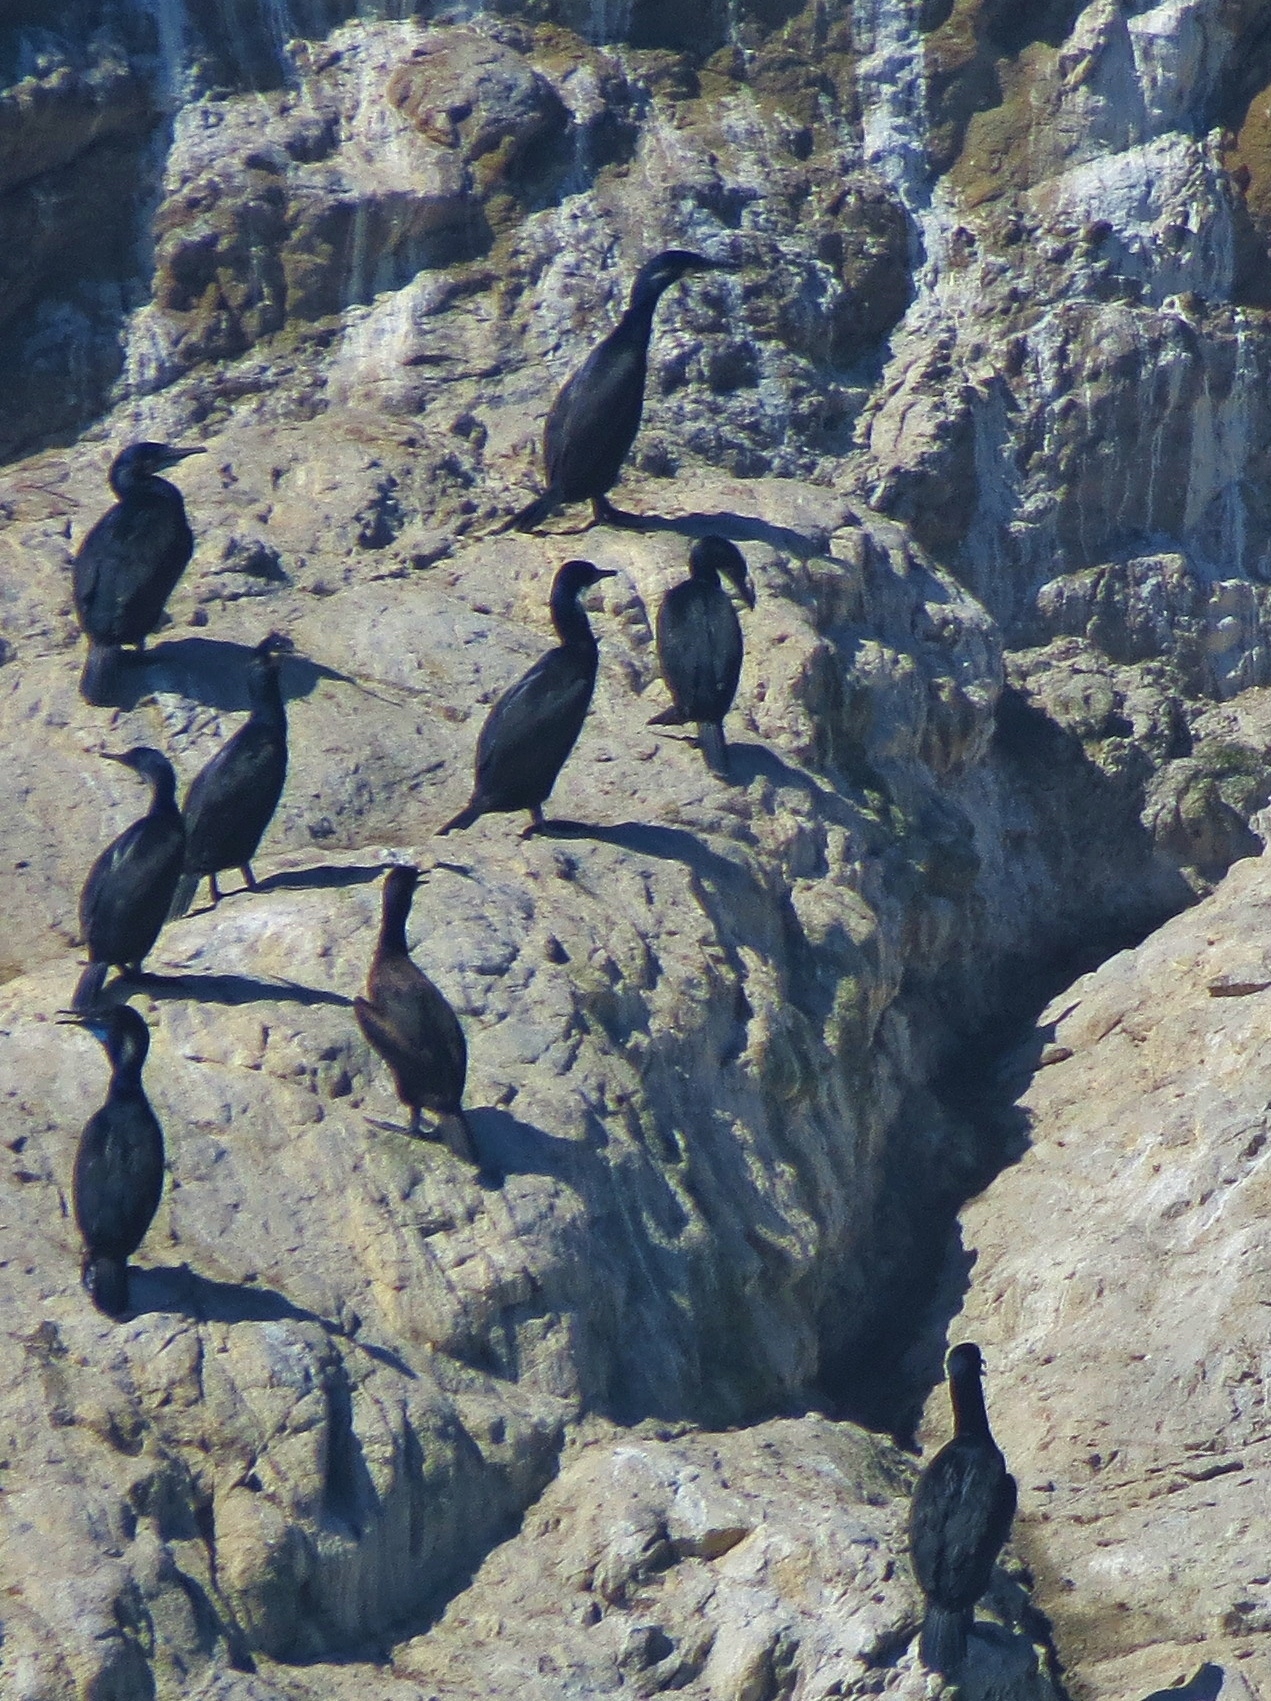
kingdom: Animalia
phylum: Chordata
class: Aves
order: Suliformes
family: Phalacrocoracidae
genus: Urile
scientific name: Urile penicillatus
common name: Brandt's cormorant
